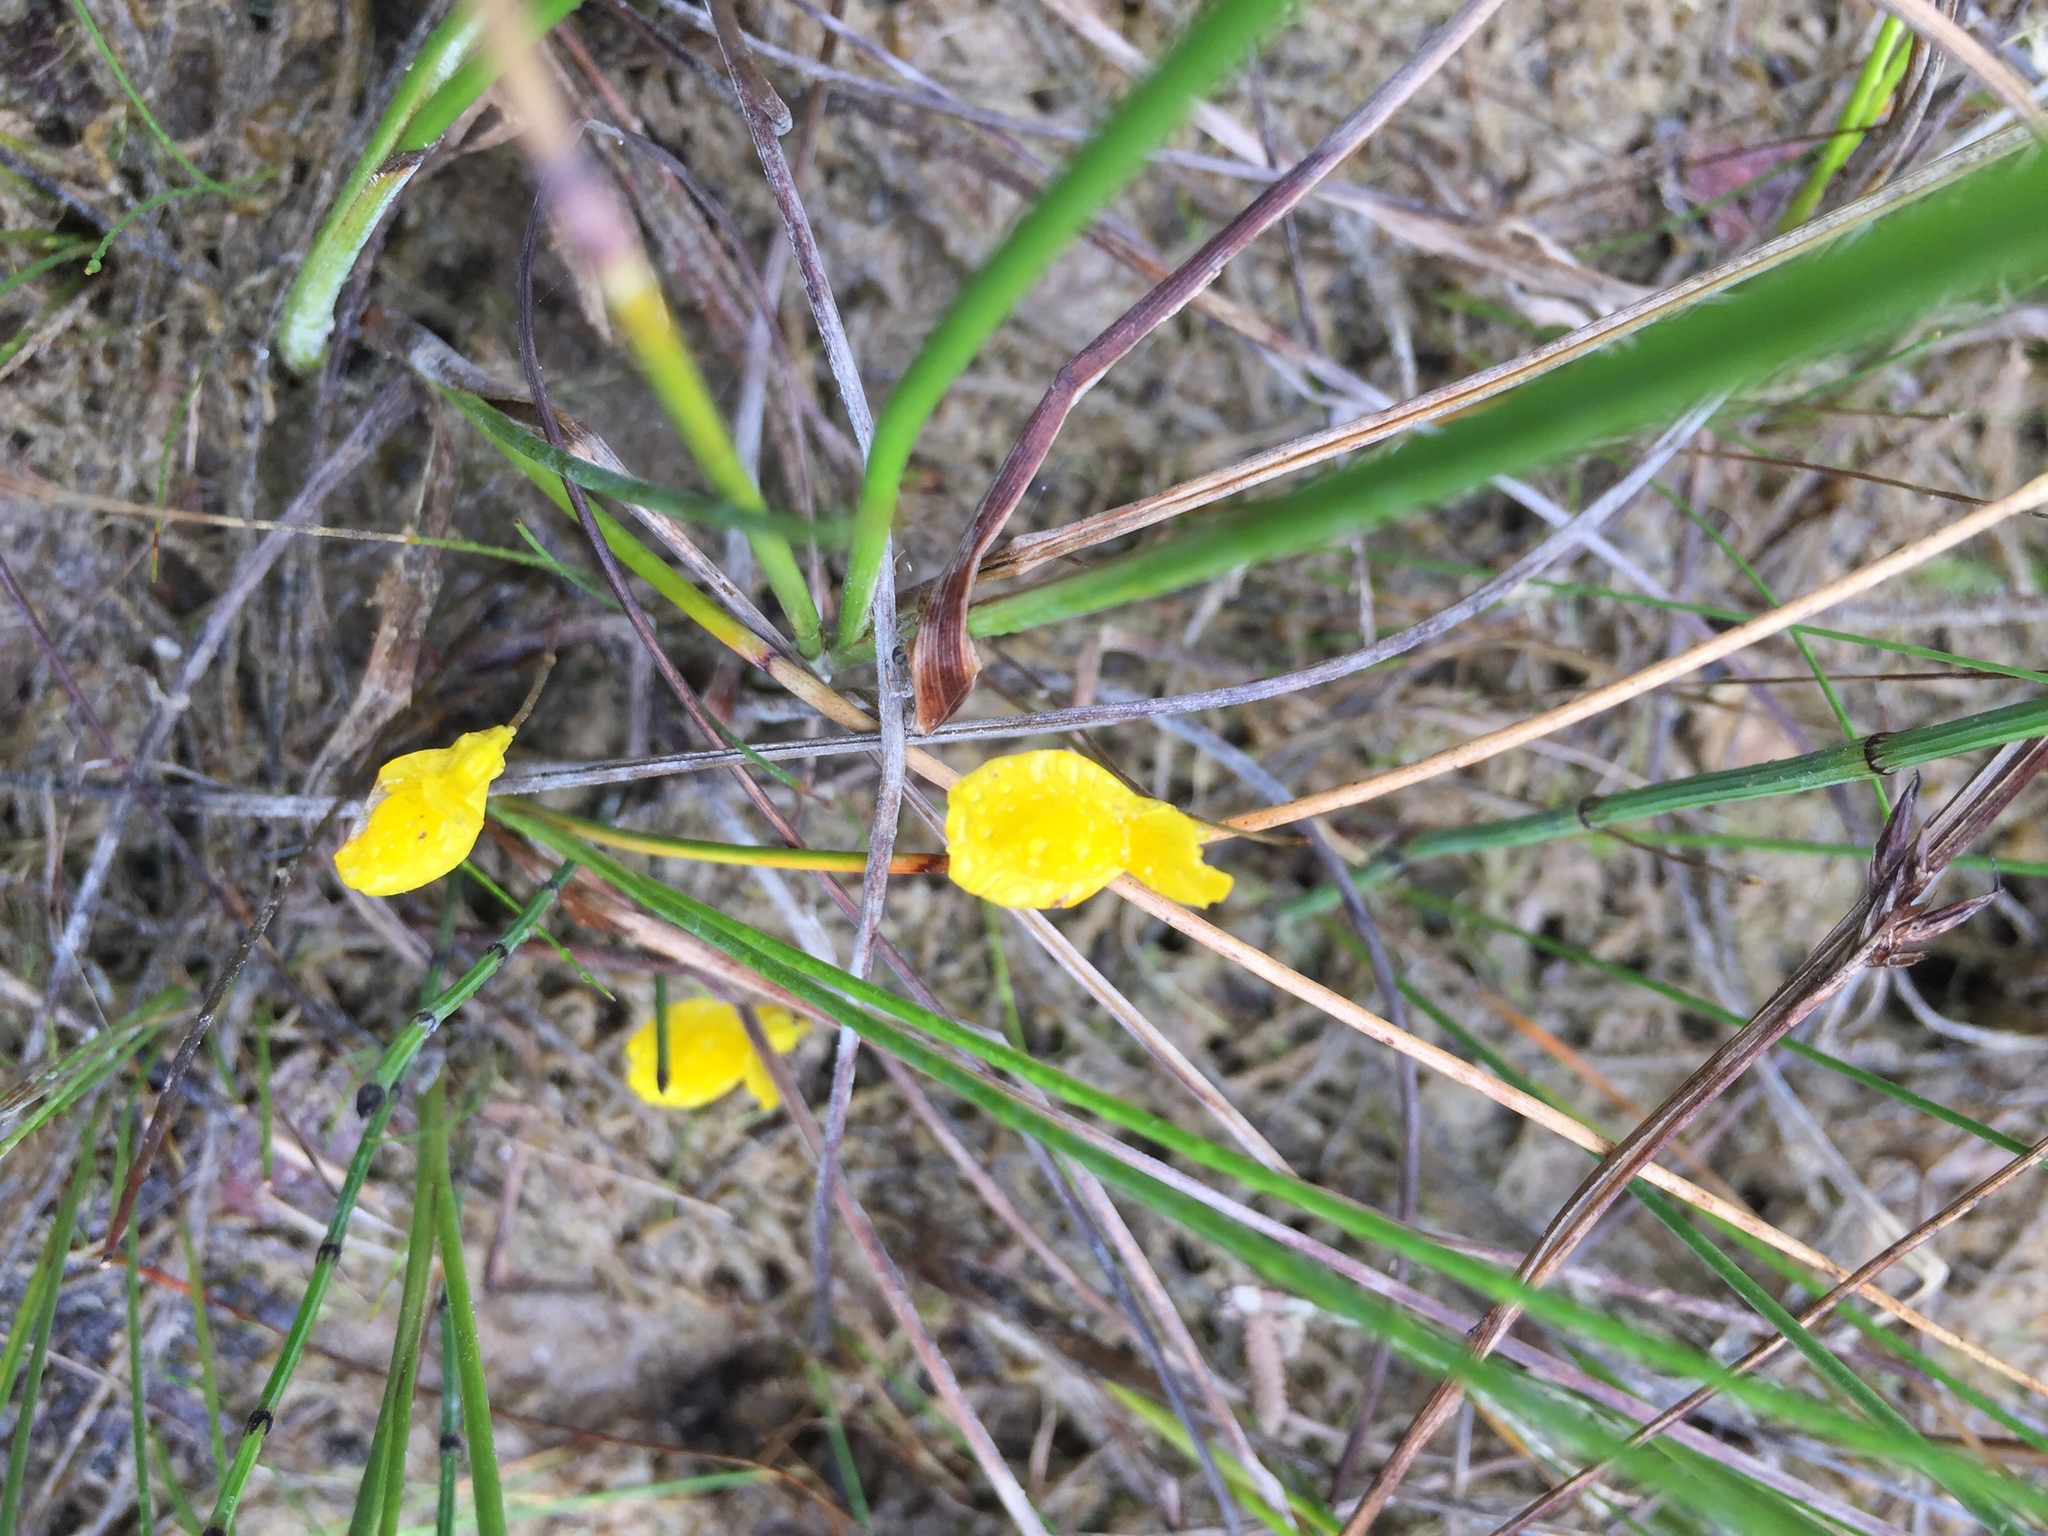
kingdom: Plantae
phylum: Tracheophyta
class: Magnoliopsida
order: Lamiales
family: Lentibulariaceae
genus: Utricularia
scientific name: Utricularia cornuta
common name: Horned bladderwort
